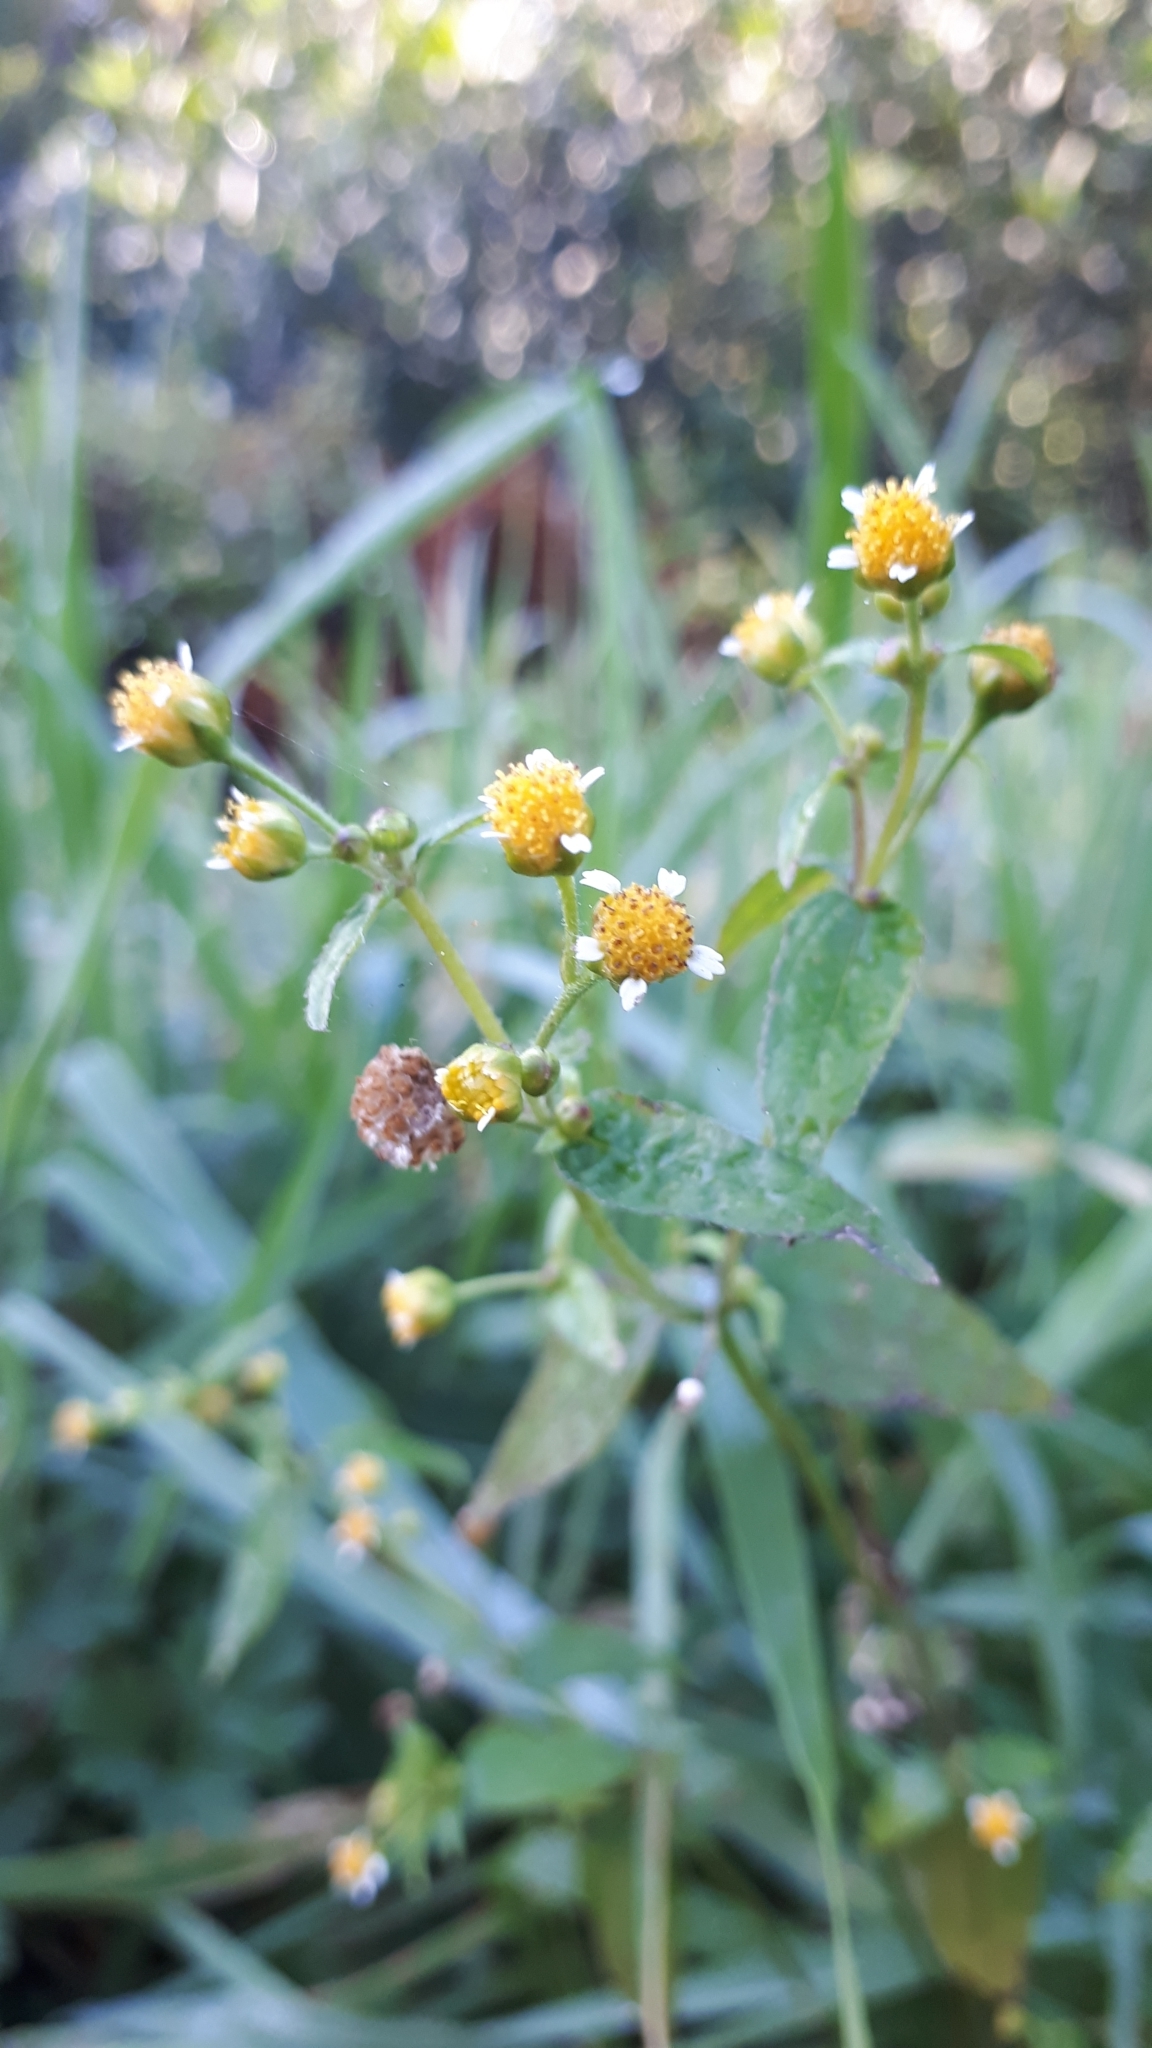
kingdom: Plantae
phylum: Tracheophyta
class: Magnoliopsida
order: Asterales
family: Asteraceae
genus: Galinsoga
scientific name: Galinsoga parviflora
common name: Gallant soldier
